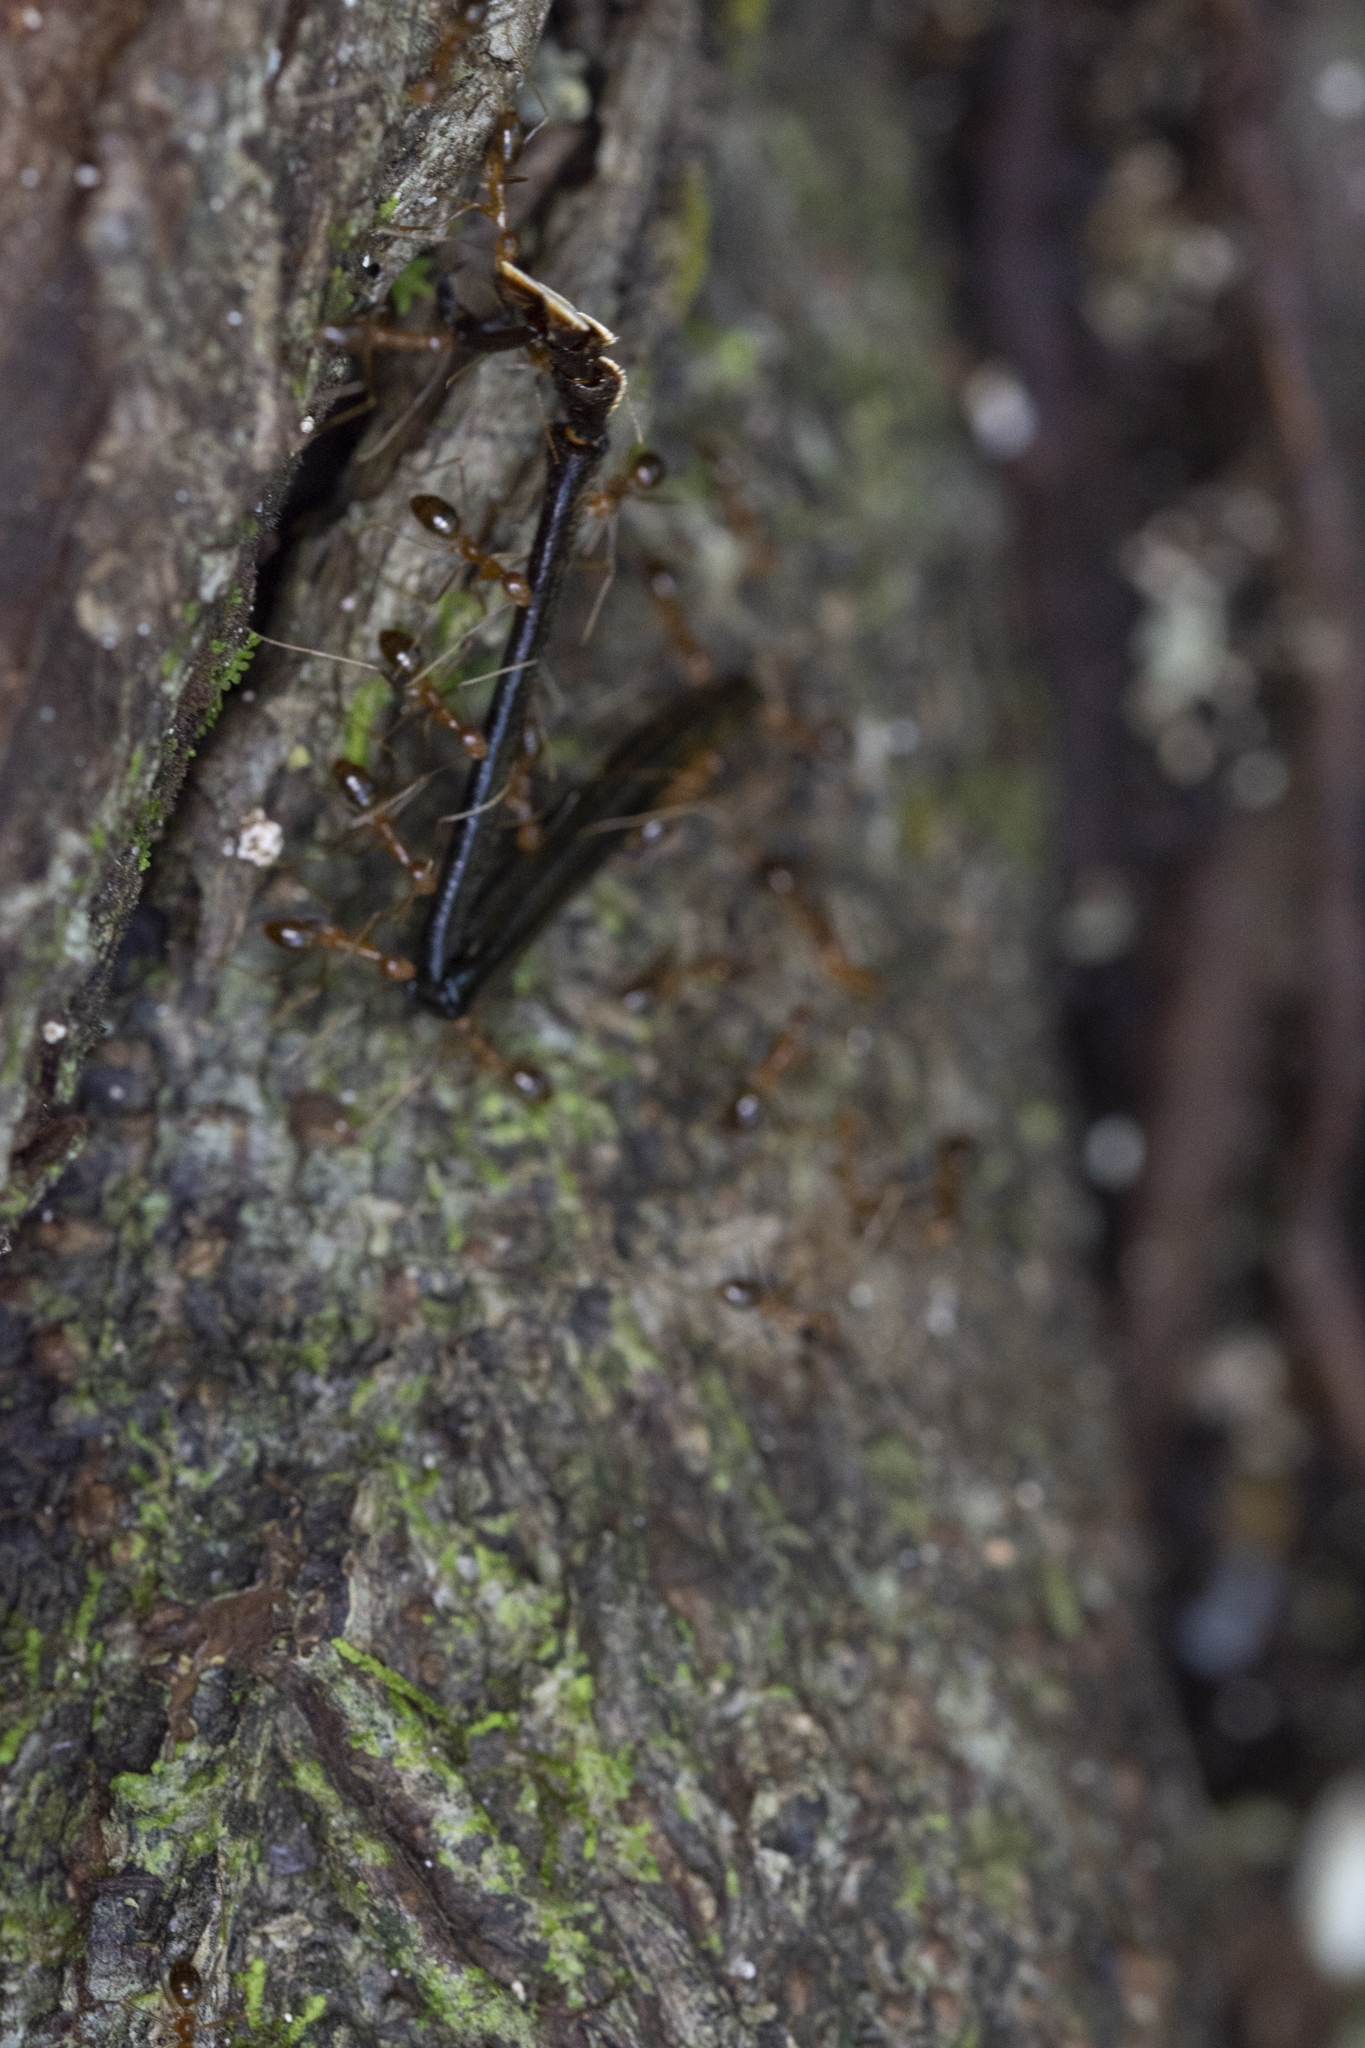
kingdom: Animalia
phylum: Arthropoda
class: Insecta
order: Hymenoptera
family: Formicidae
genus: Anoplolepis
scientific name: Anoplolepis gracilipes
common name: Ant
